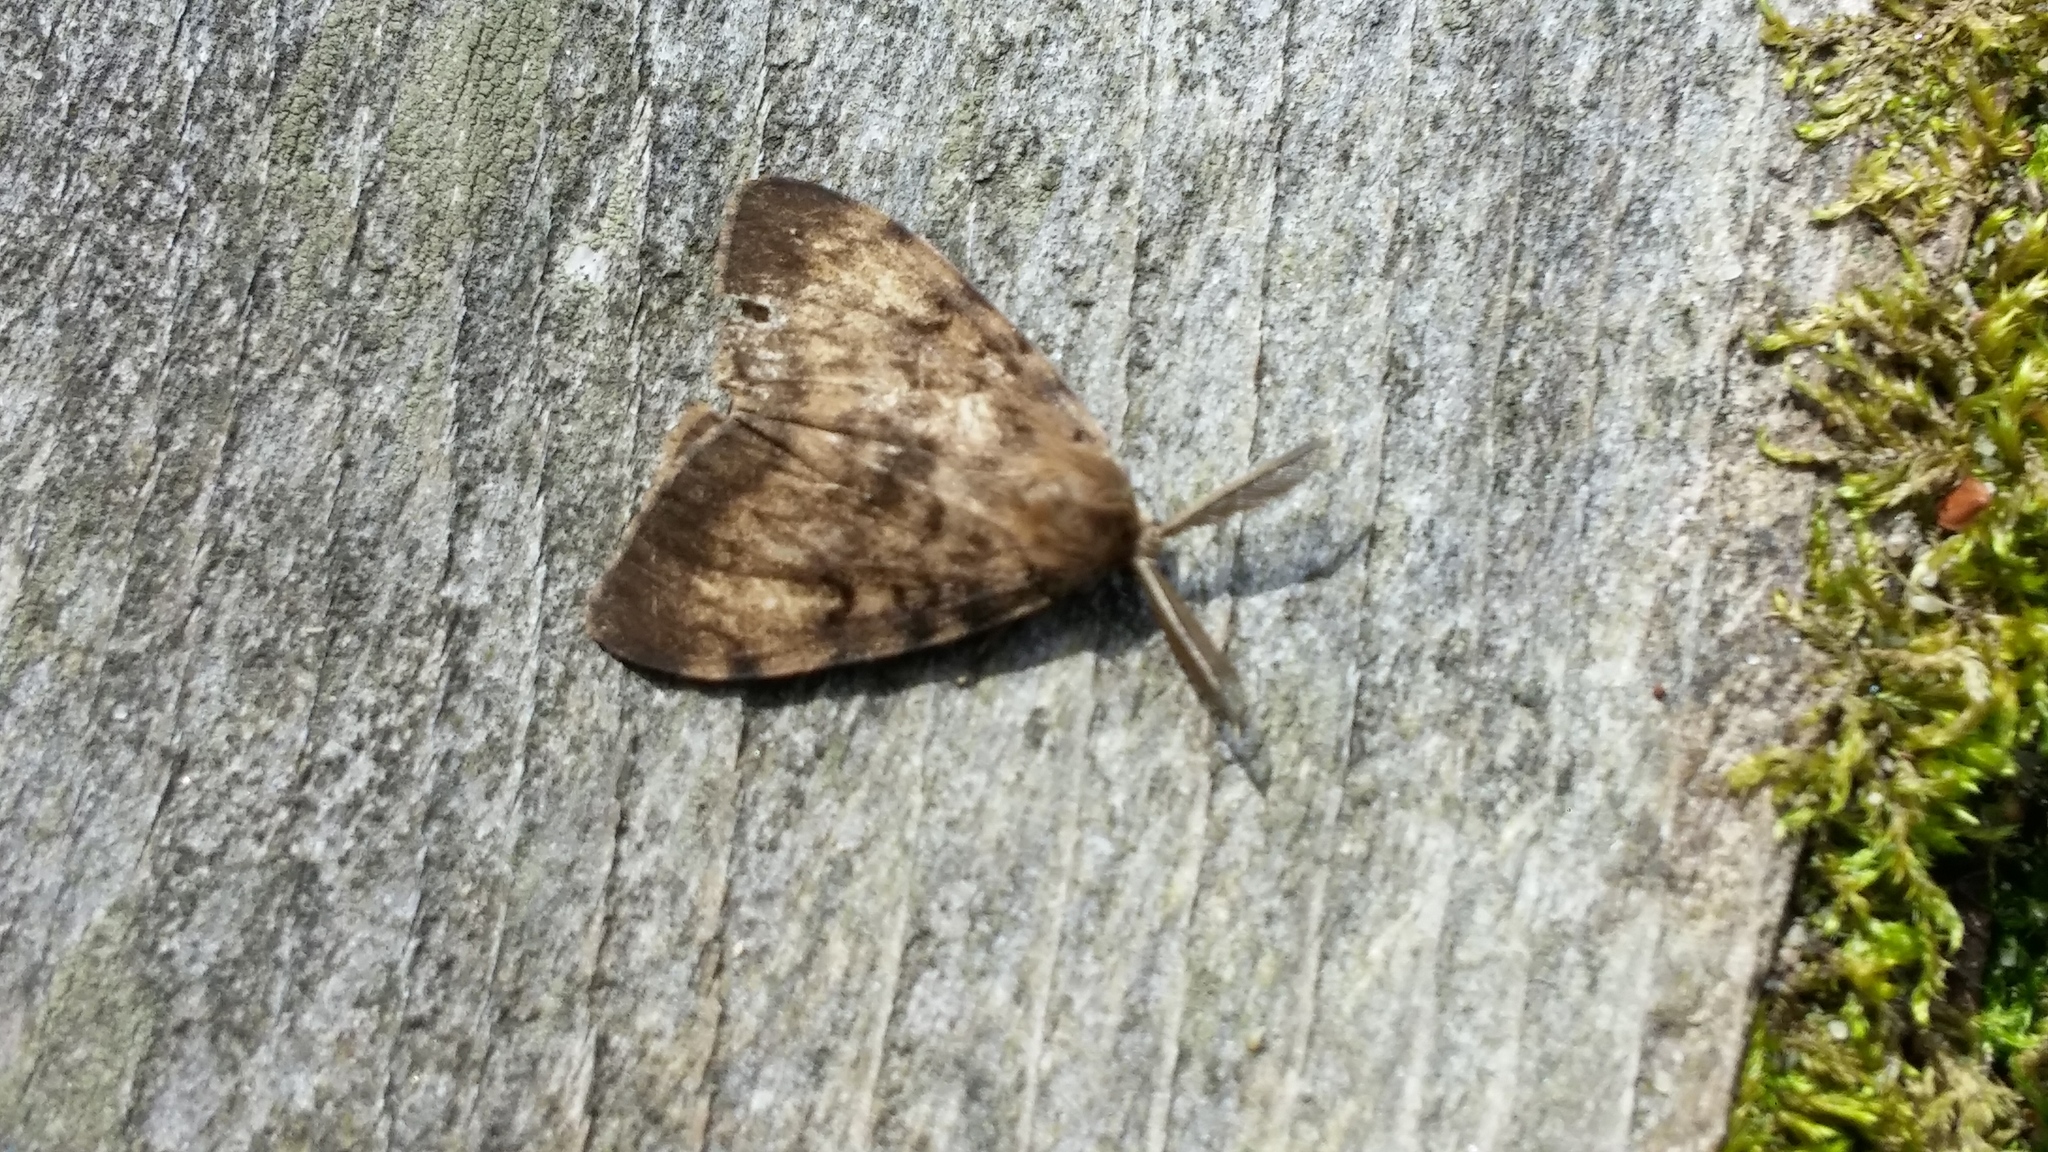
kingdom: Animalia
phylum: Arthropoda
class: Insecta
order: Lepidoptera
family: Erebidae
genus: Lymantria
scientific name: Lymantria dispar
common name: Gypsy moth
